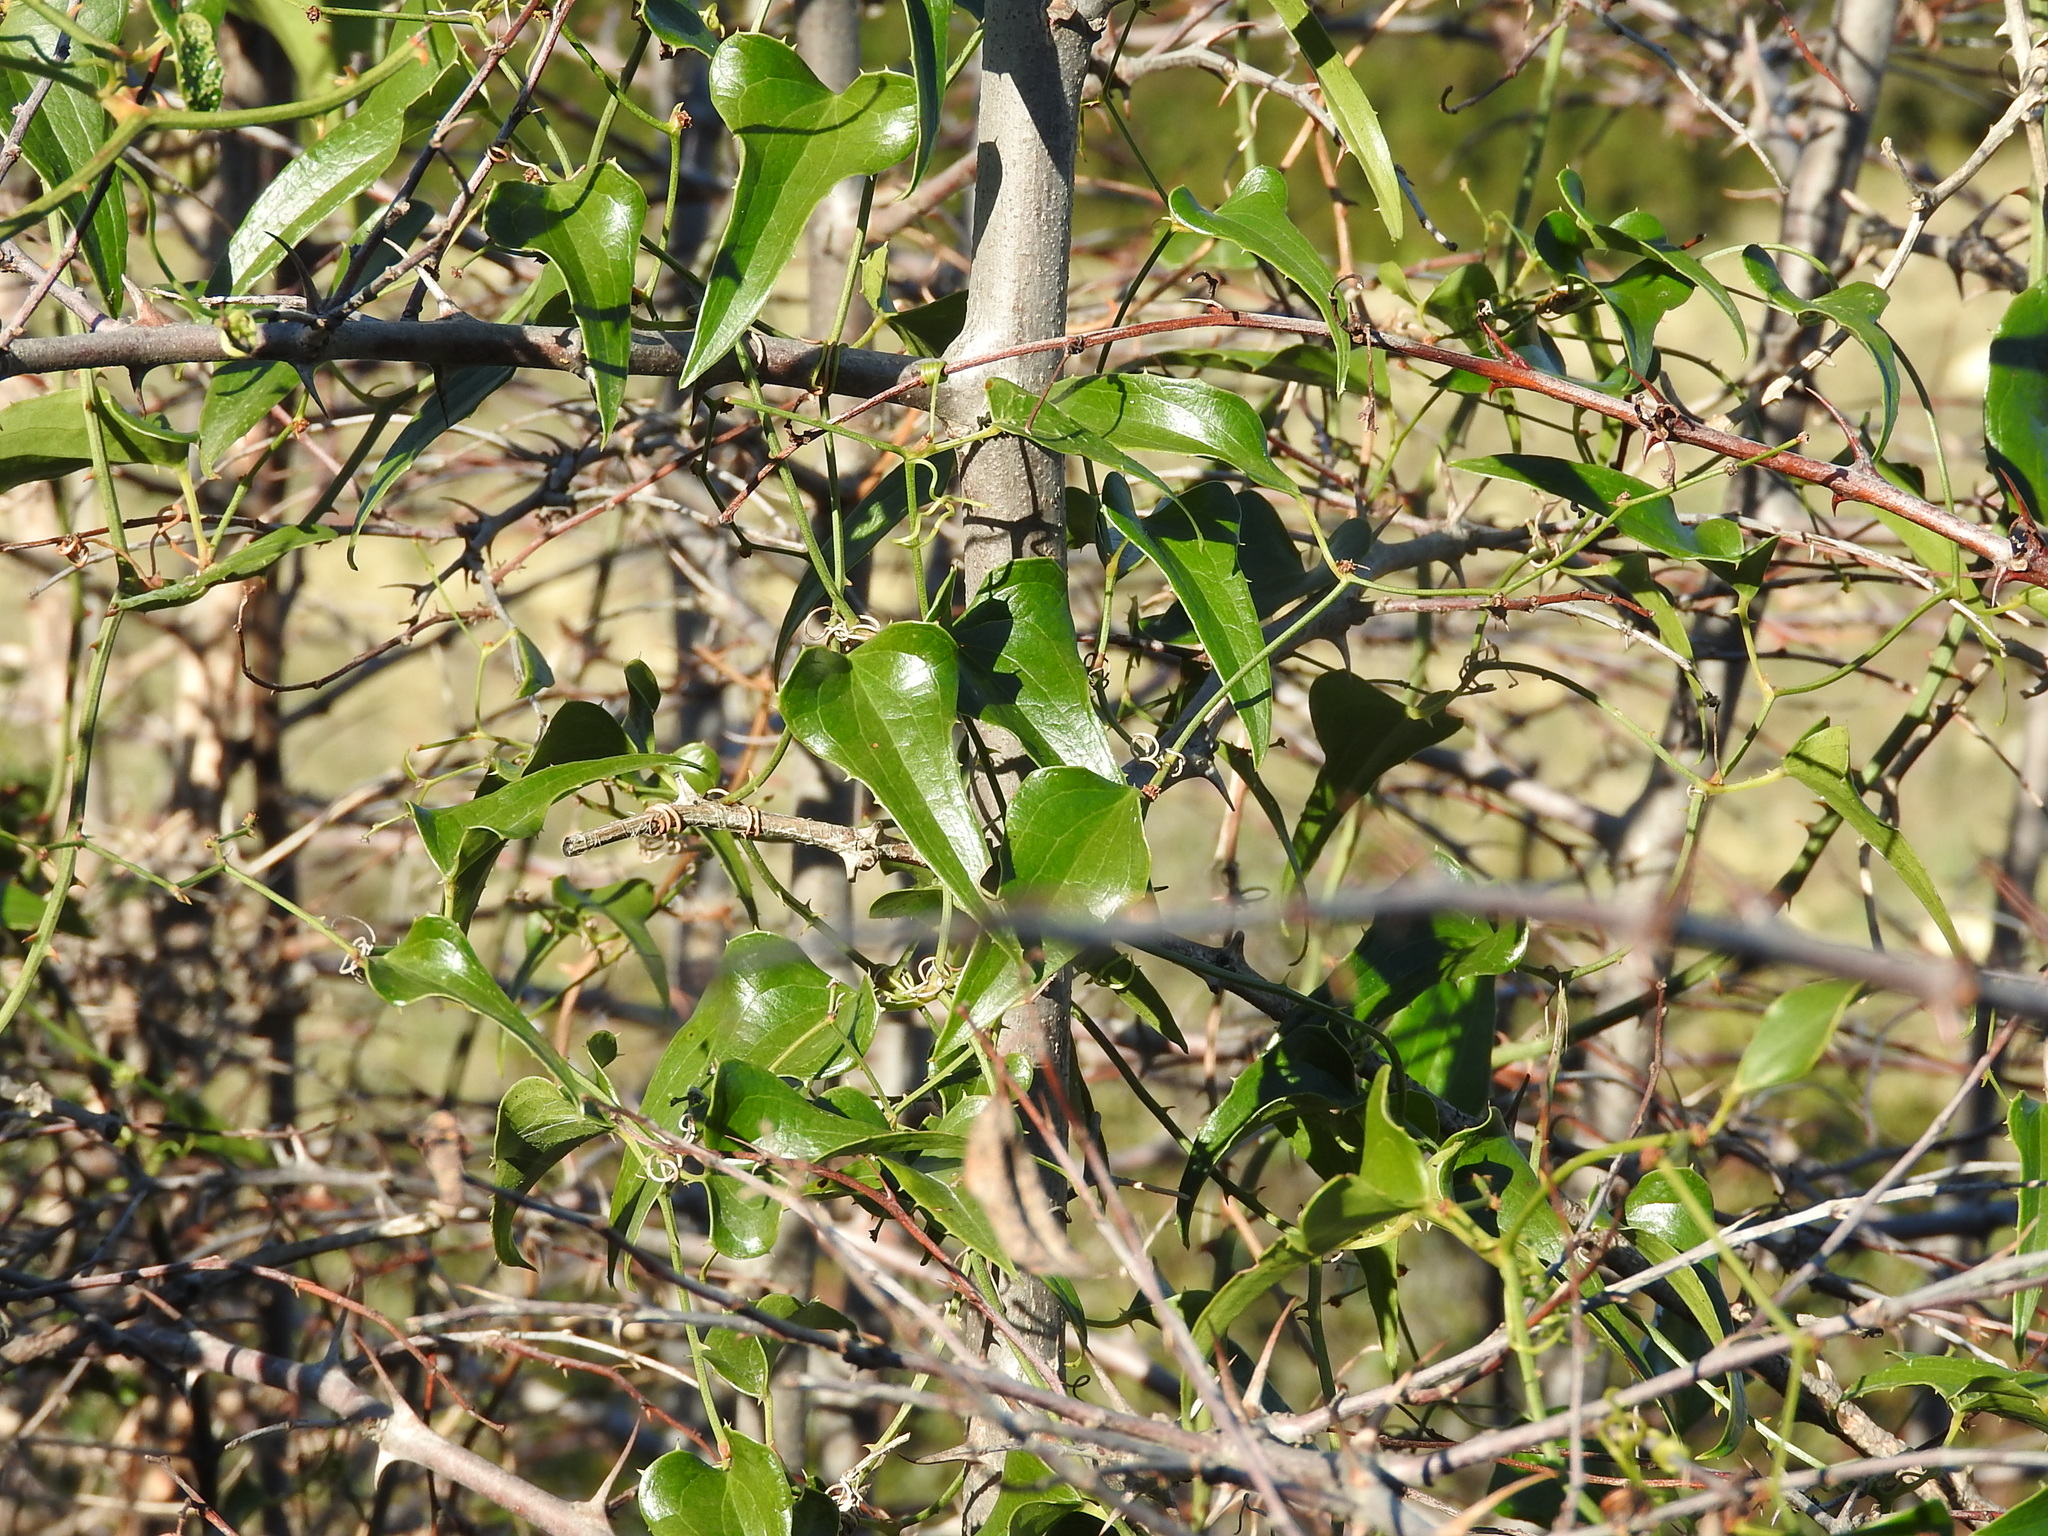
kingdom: Plantae
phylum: Tracheophyta
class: Liliopsida
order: Liliales
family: Smilacaceae
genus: Smilax
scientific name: Smilax aspera
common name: Common smilax
